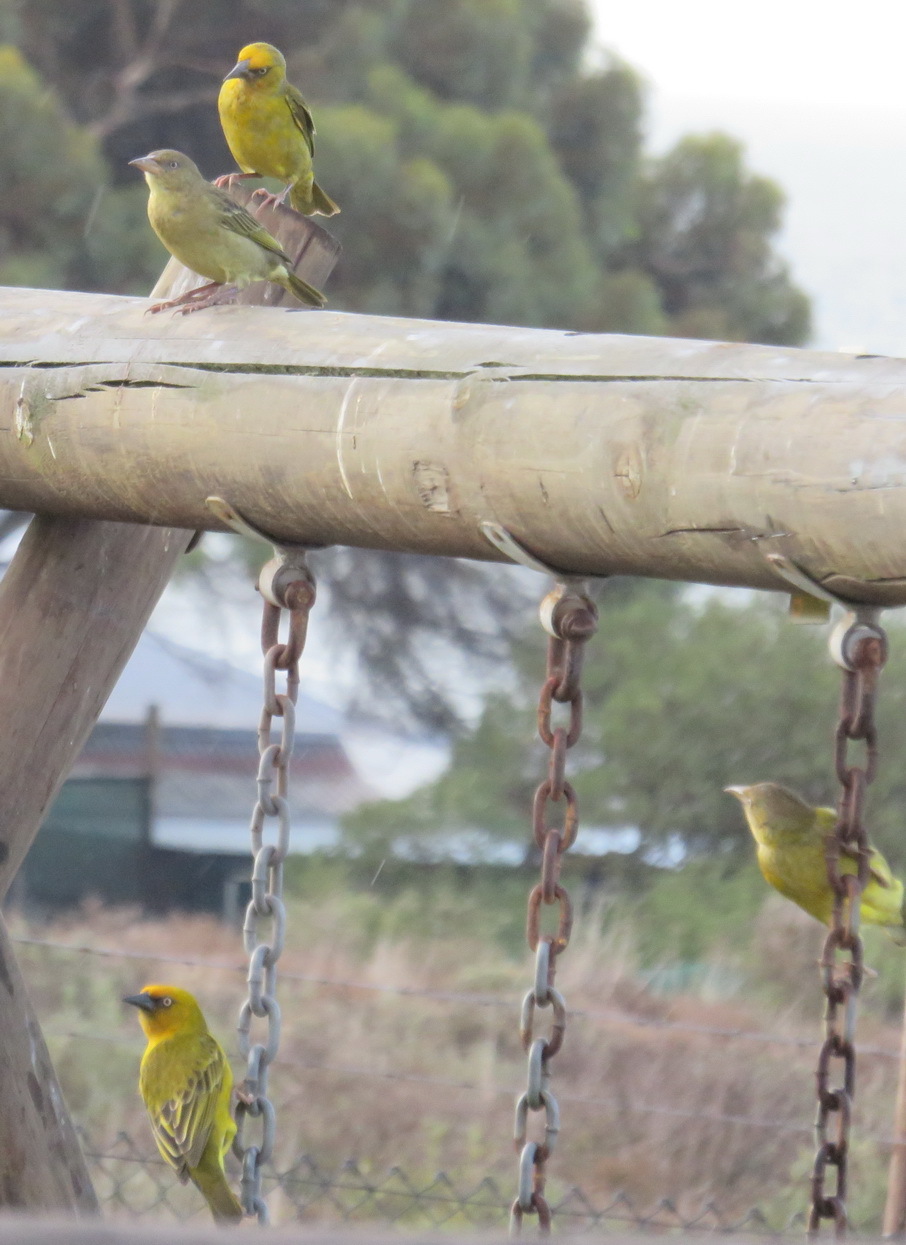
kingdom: Animalia
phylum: Chordata
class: Aves
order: Passeriformes
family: Ploceidae
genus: Ploceus
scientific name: Ploceus capensis
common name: Cape weaver
